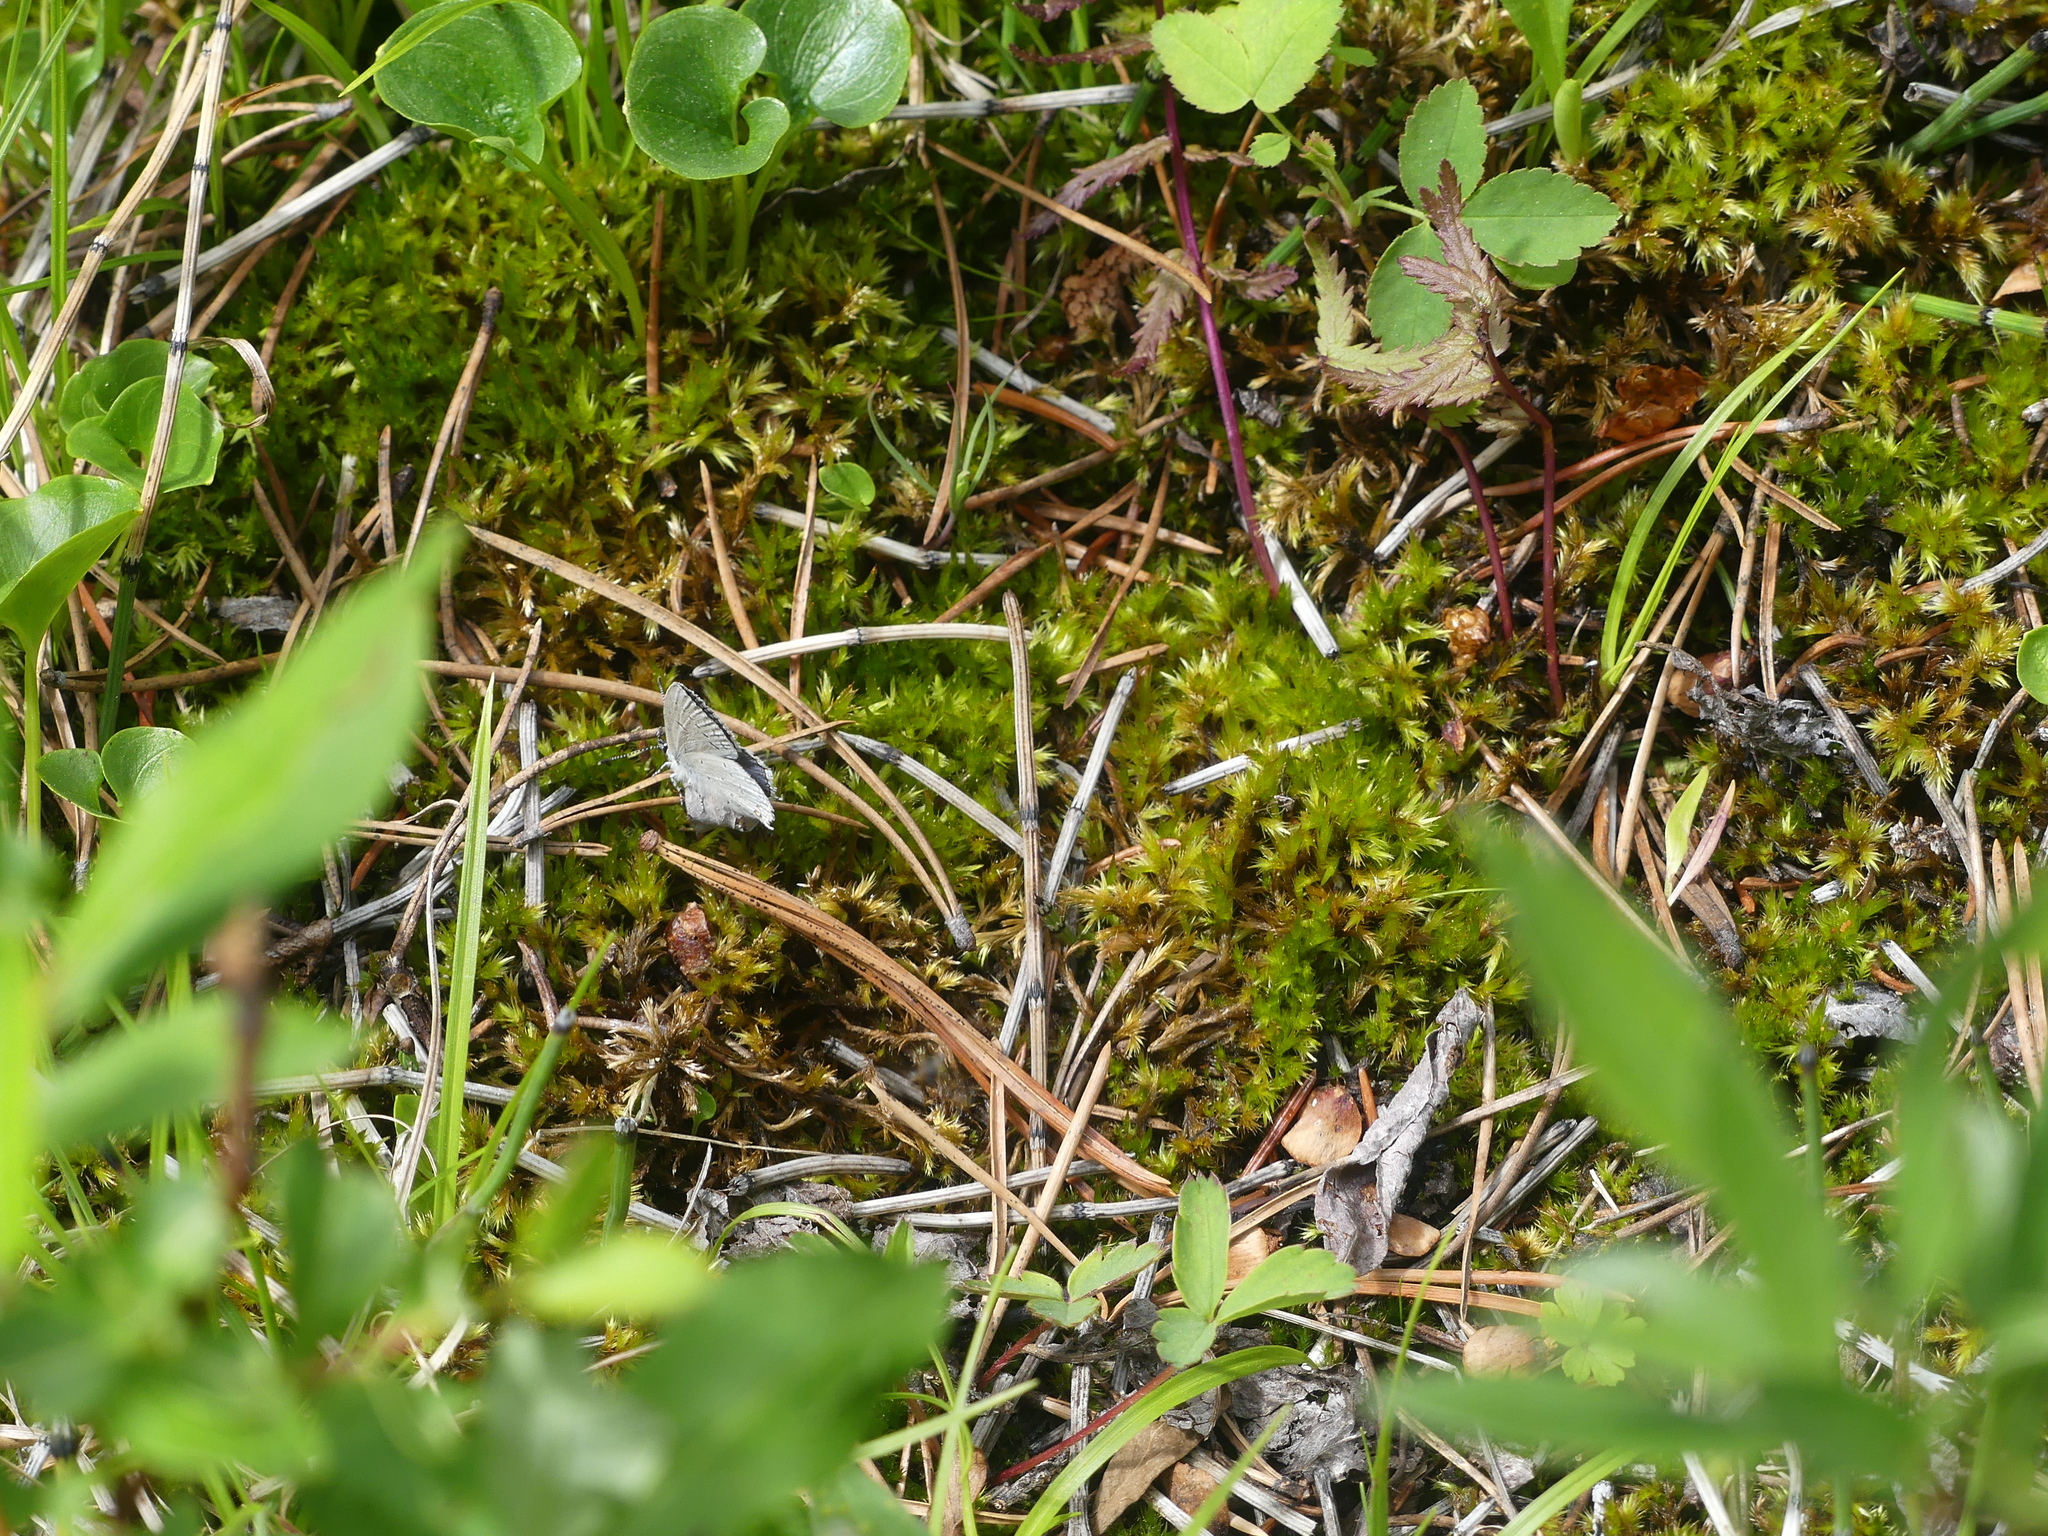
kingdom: Animalia
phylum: Arthropoda
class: Insecta
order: Lepidoptera
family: Lycaenidae
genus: Elkalyce
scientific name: Elkalyce amyntula
